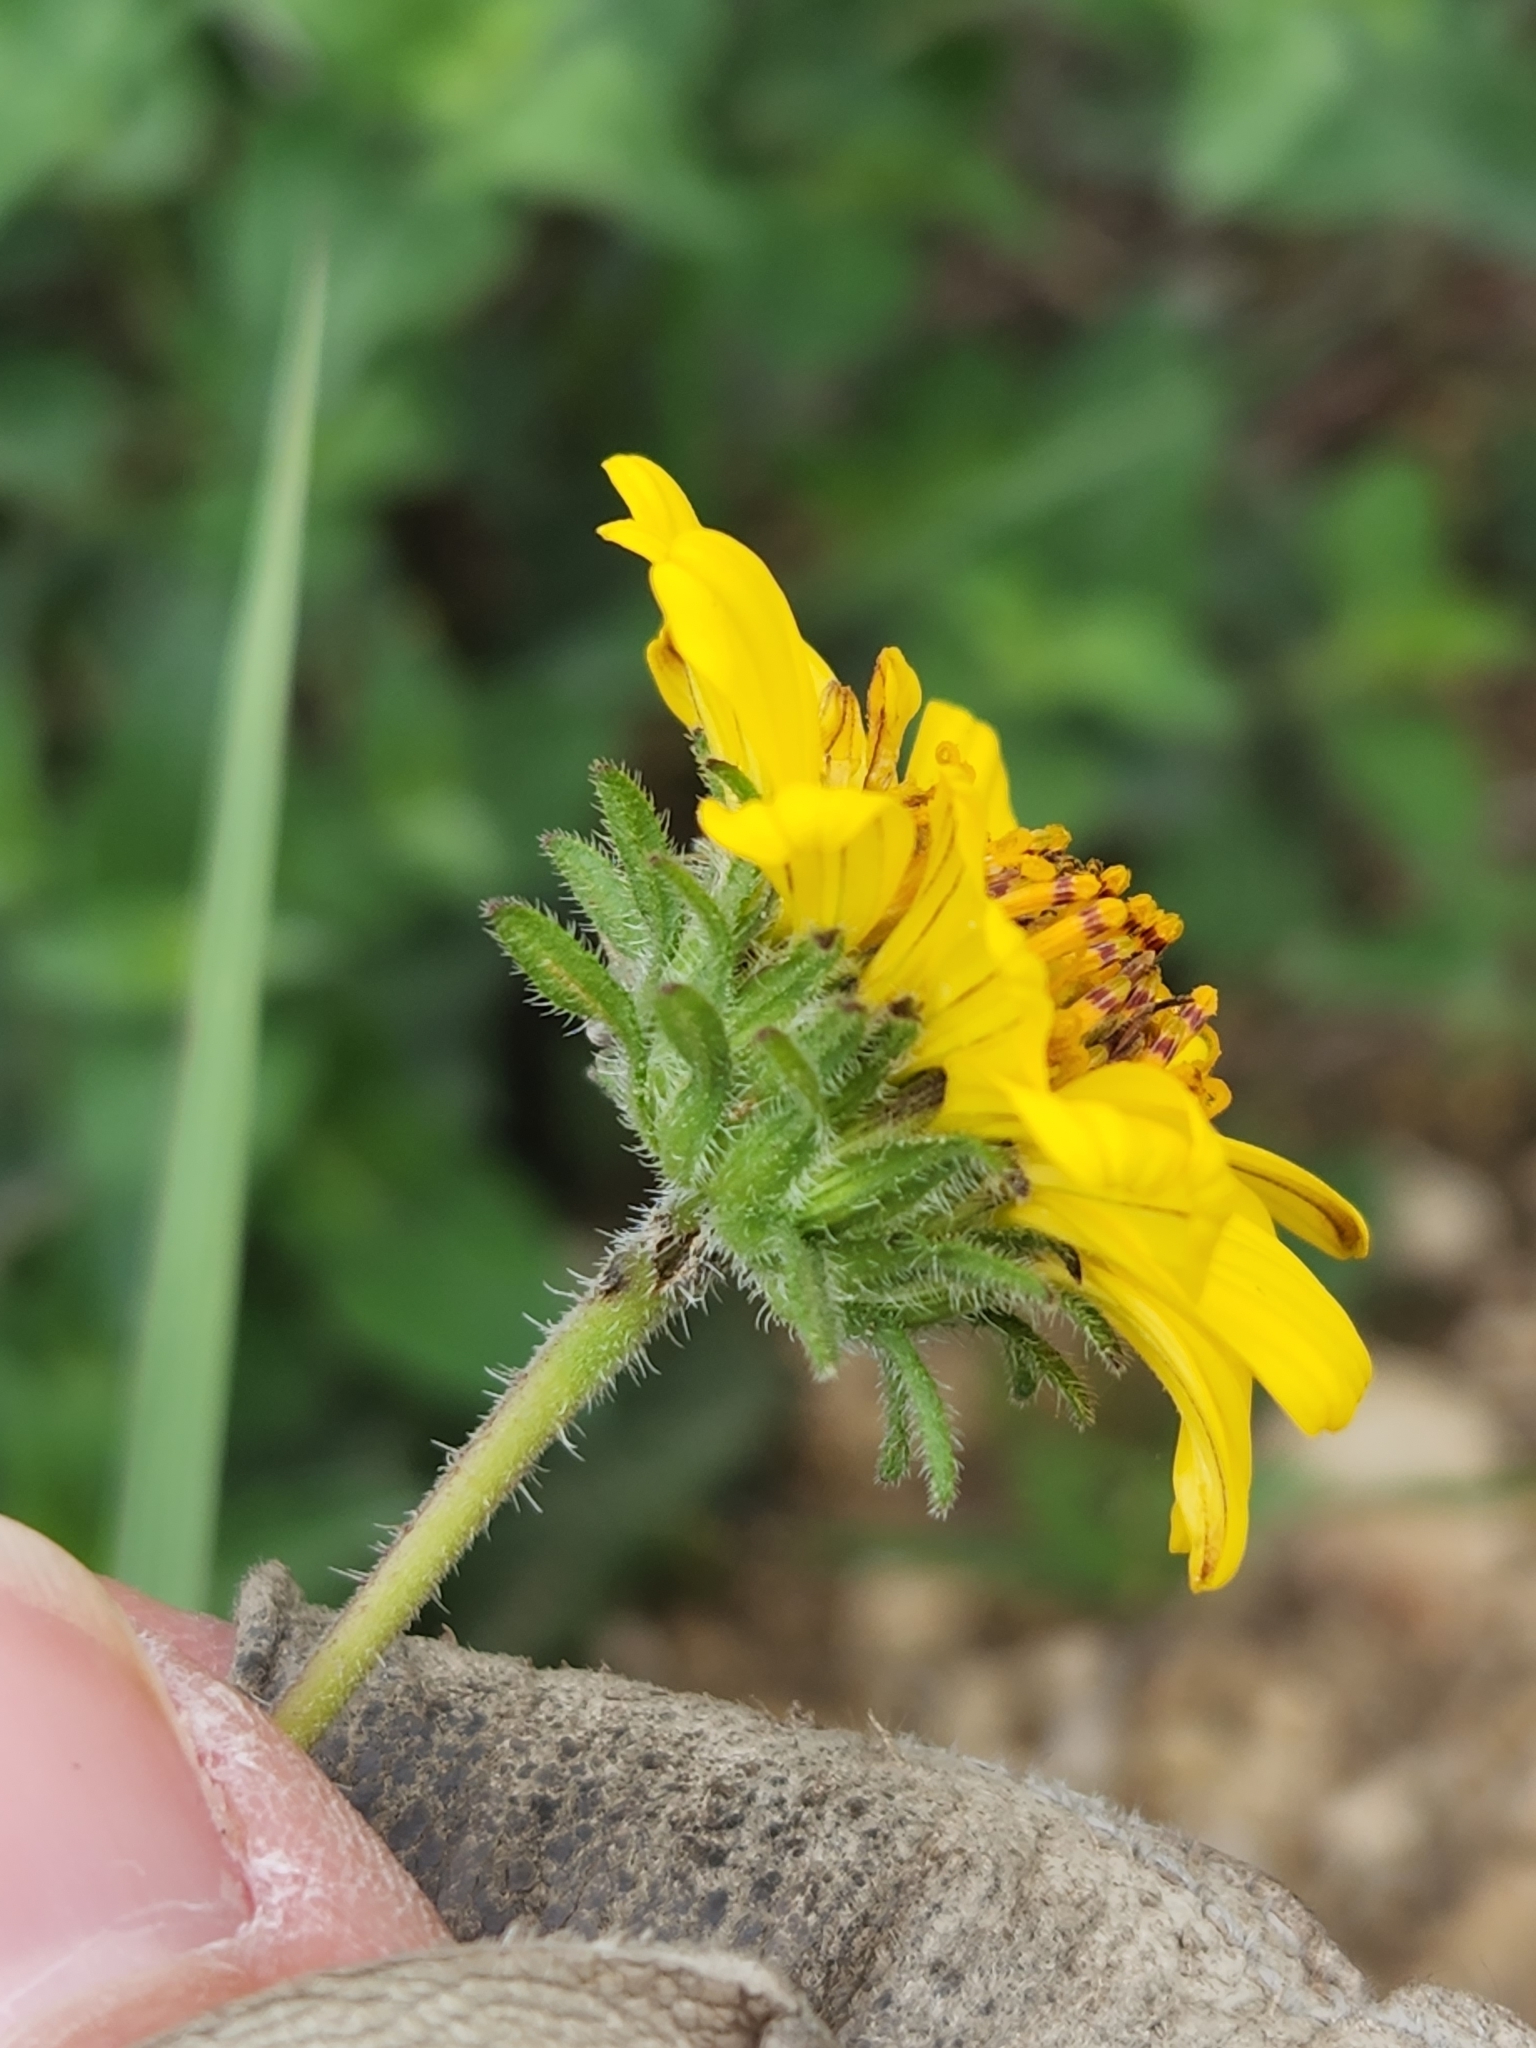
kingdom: Plantae
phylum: Tracheophyta
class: Magnoliopsida
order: Asterales
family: Asteraceae
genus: Simsia
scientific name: Simsia calva
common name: Awnless bush-sunflower
